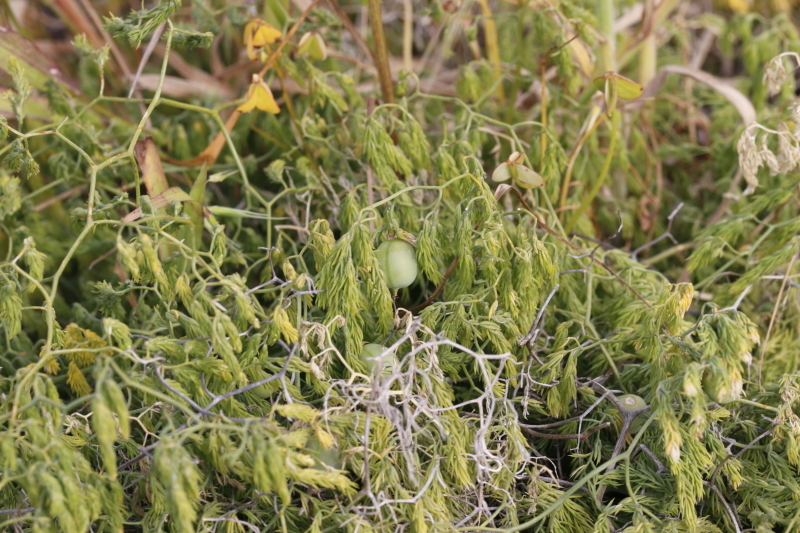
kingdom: Plantae
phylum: Tracheophyta
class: Liliopsida
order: Asparagales
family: Asparagaceae
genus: Asparagus
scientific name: Asparagus declinatus
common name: Bridal-creeper
